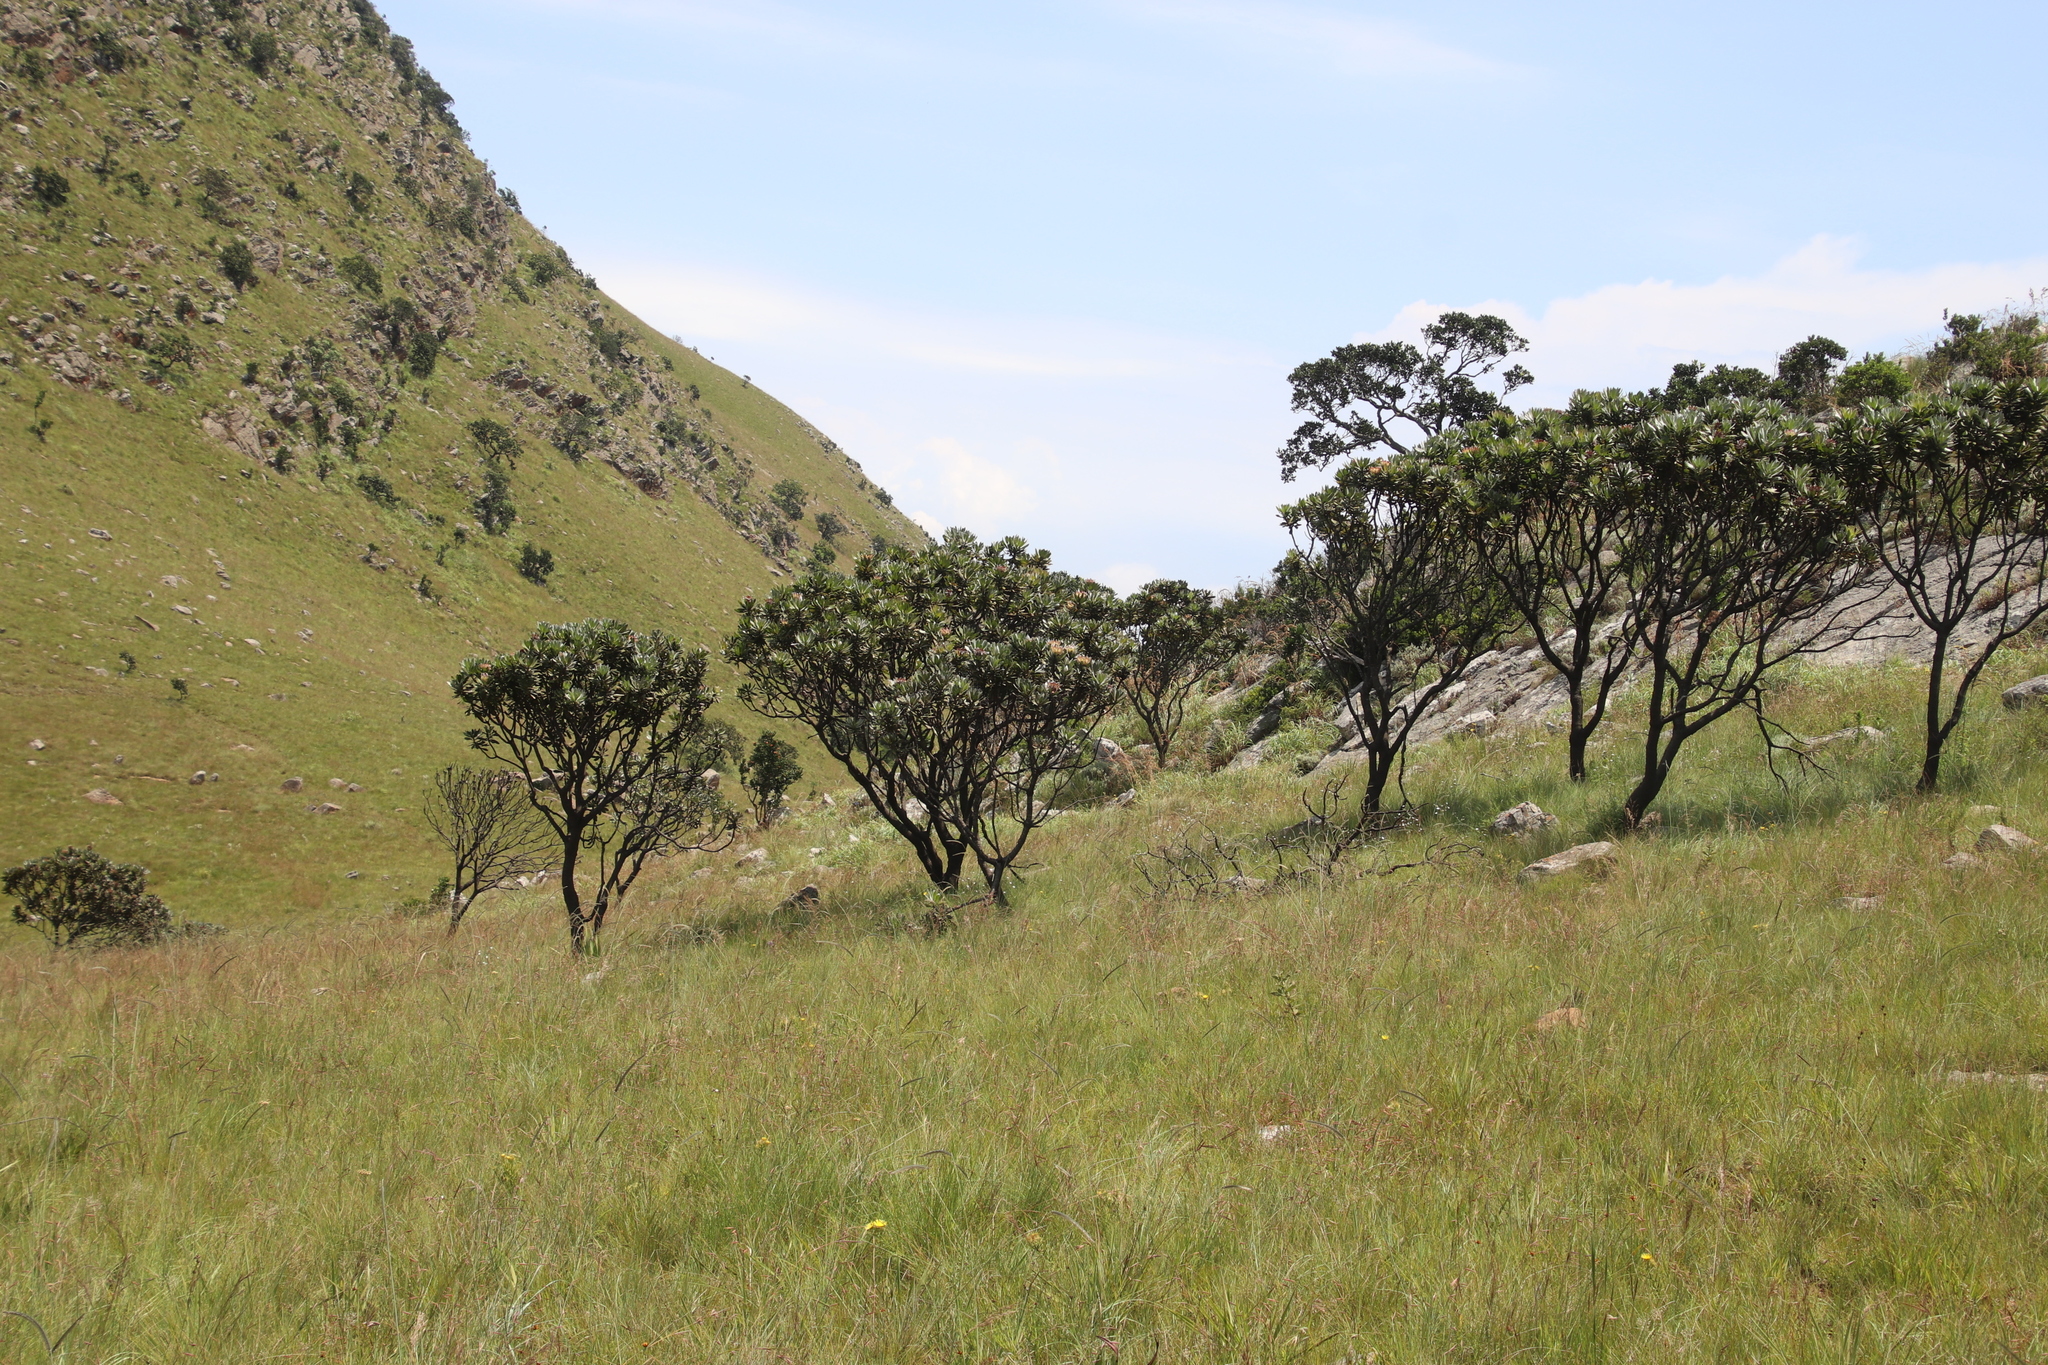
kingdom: Plantae
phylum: Tracheophyta
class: Magnoliopsida
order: Proteales
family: Proteaceae
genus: Protea
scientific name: Protea roupelliae
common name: Silver sugarbush
